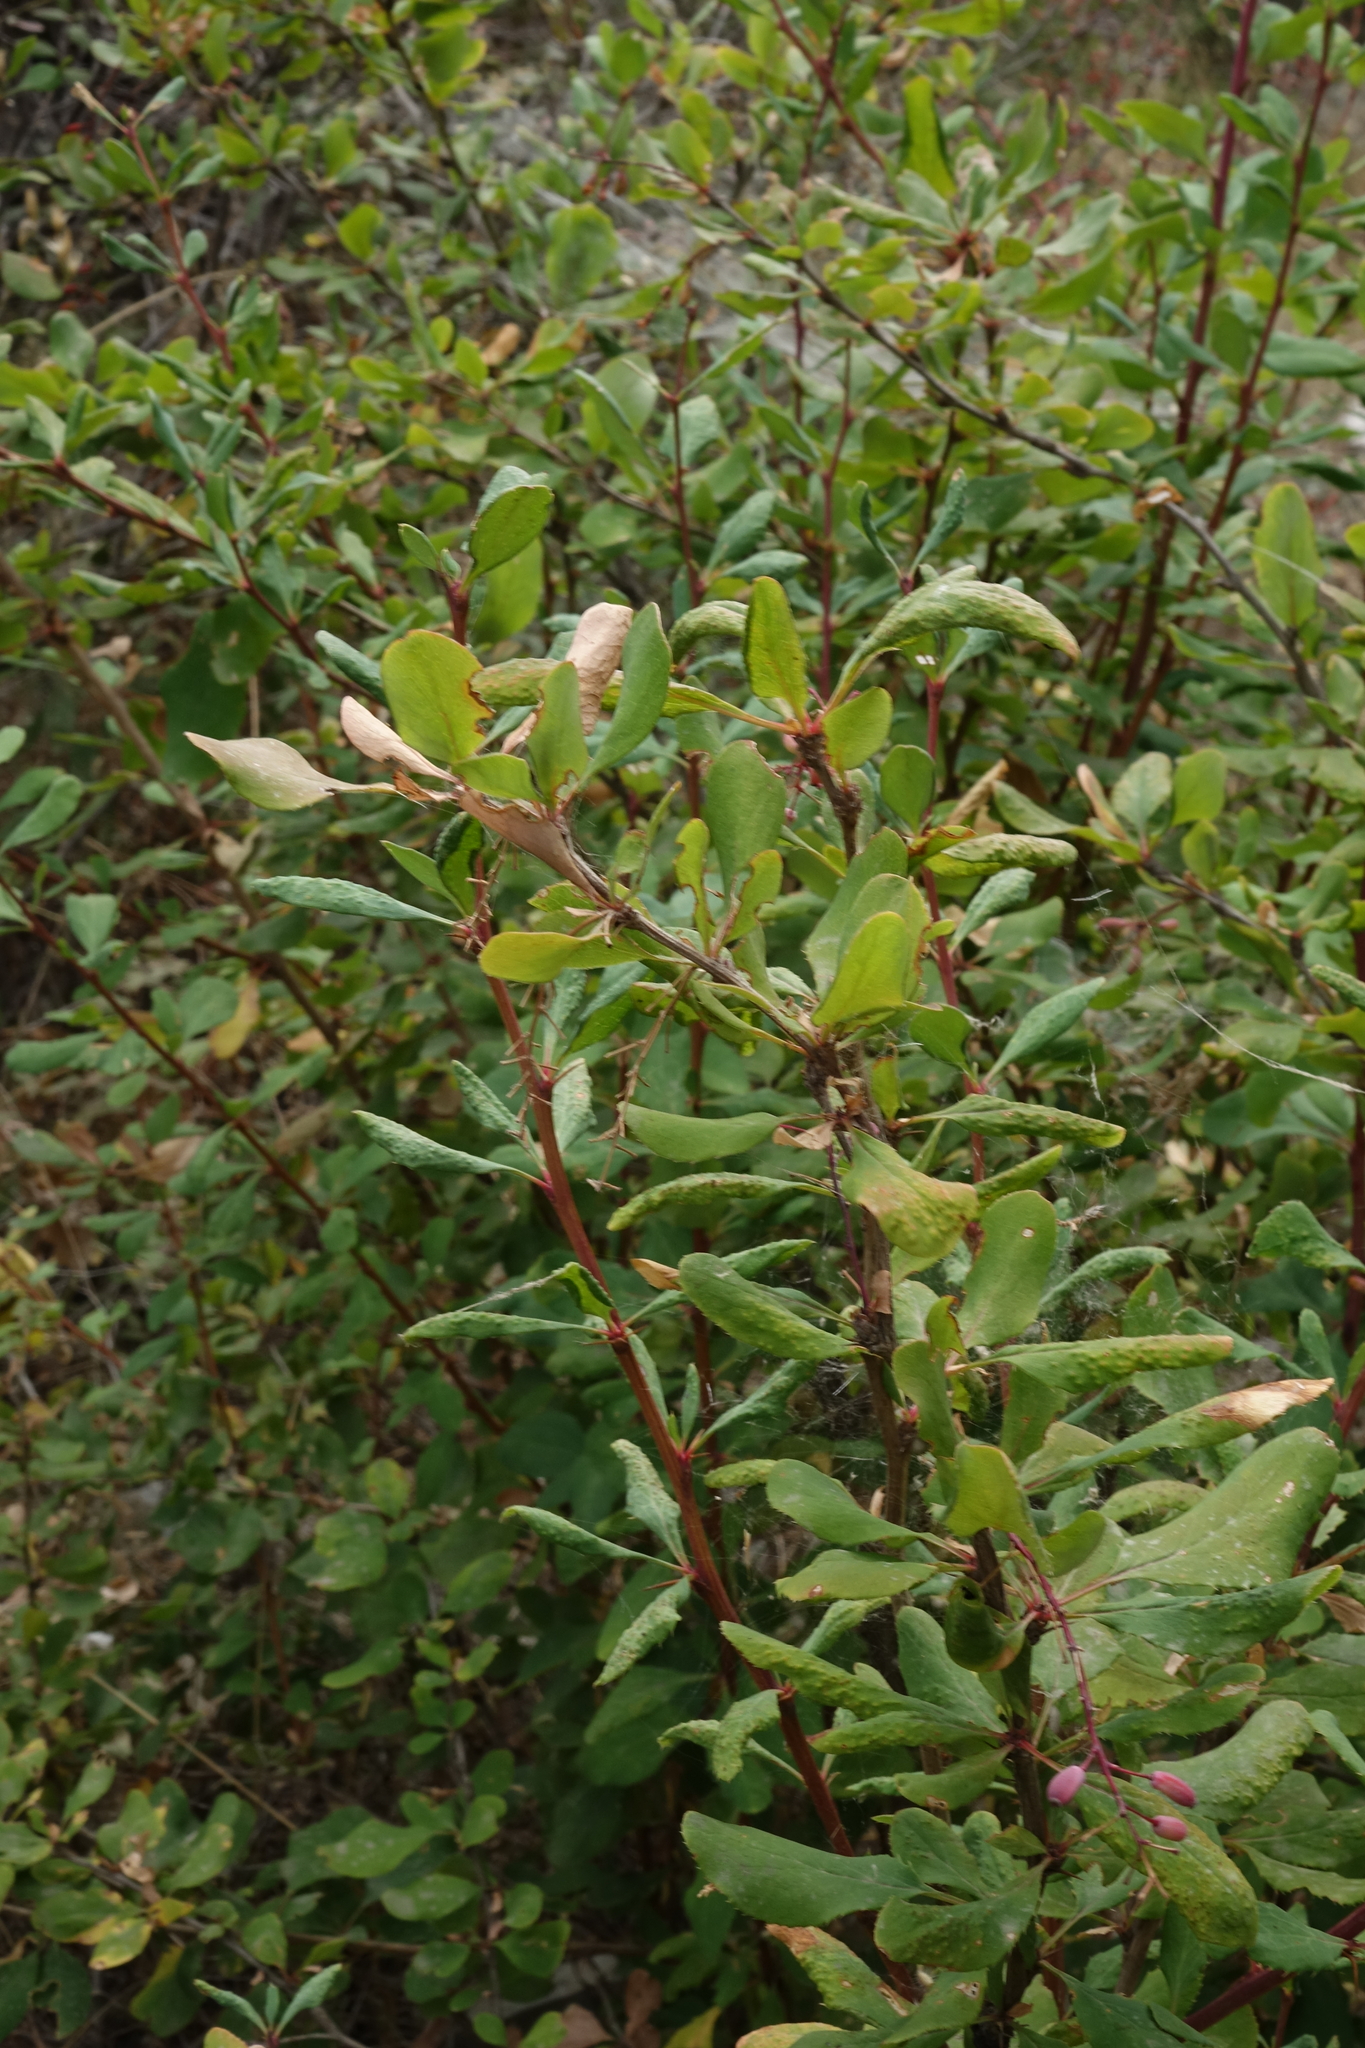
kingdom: Plantae
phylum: Tracheophyta
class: Magnoliopsida
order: Ranunculales
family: Berberidaceae
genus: Berberis
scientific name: Berberis vulgaris
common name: Barberry
